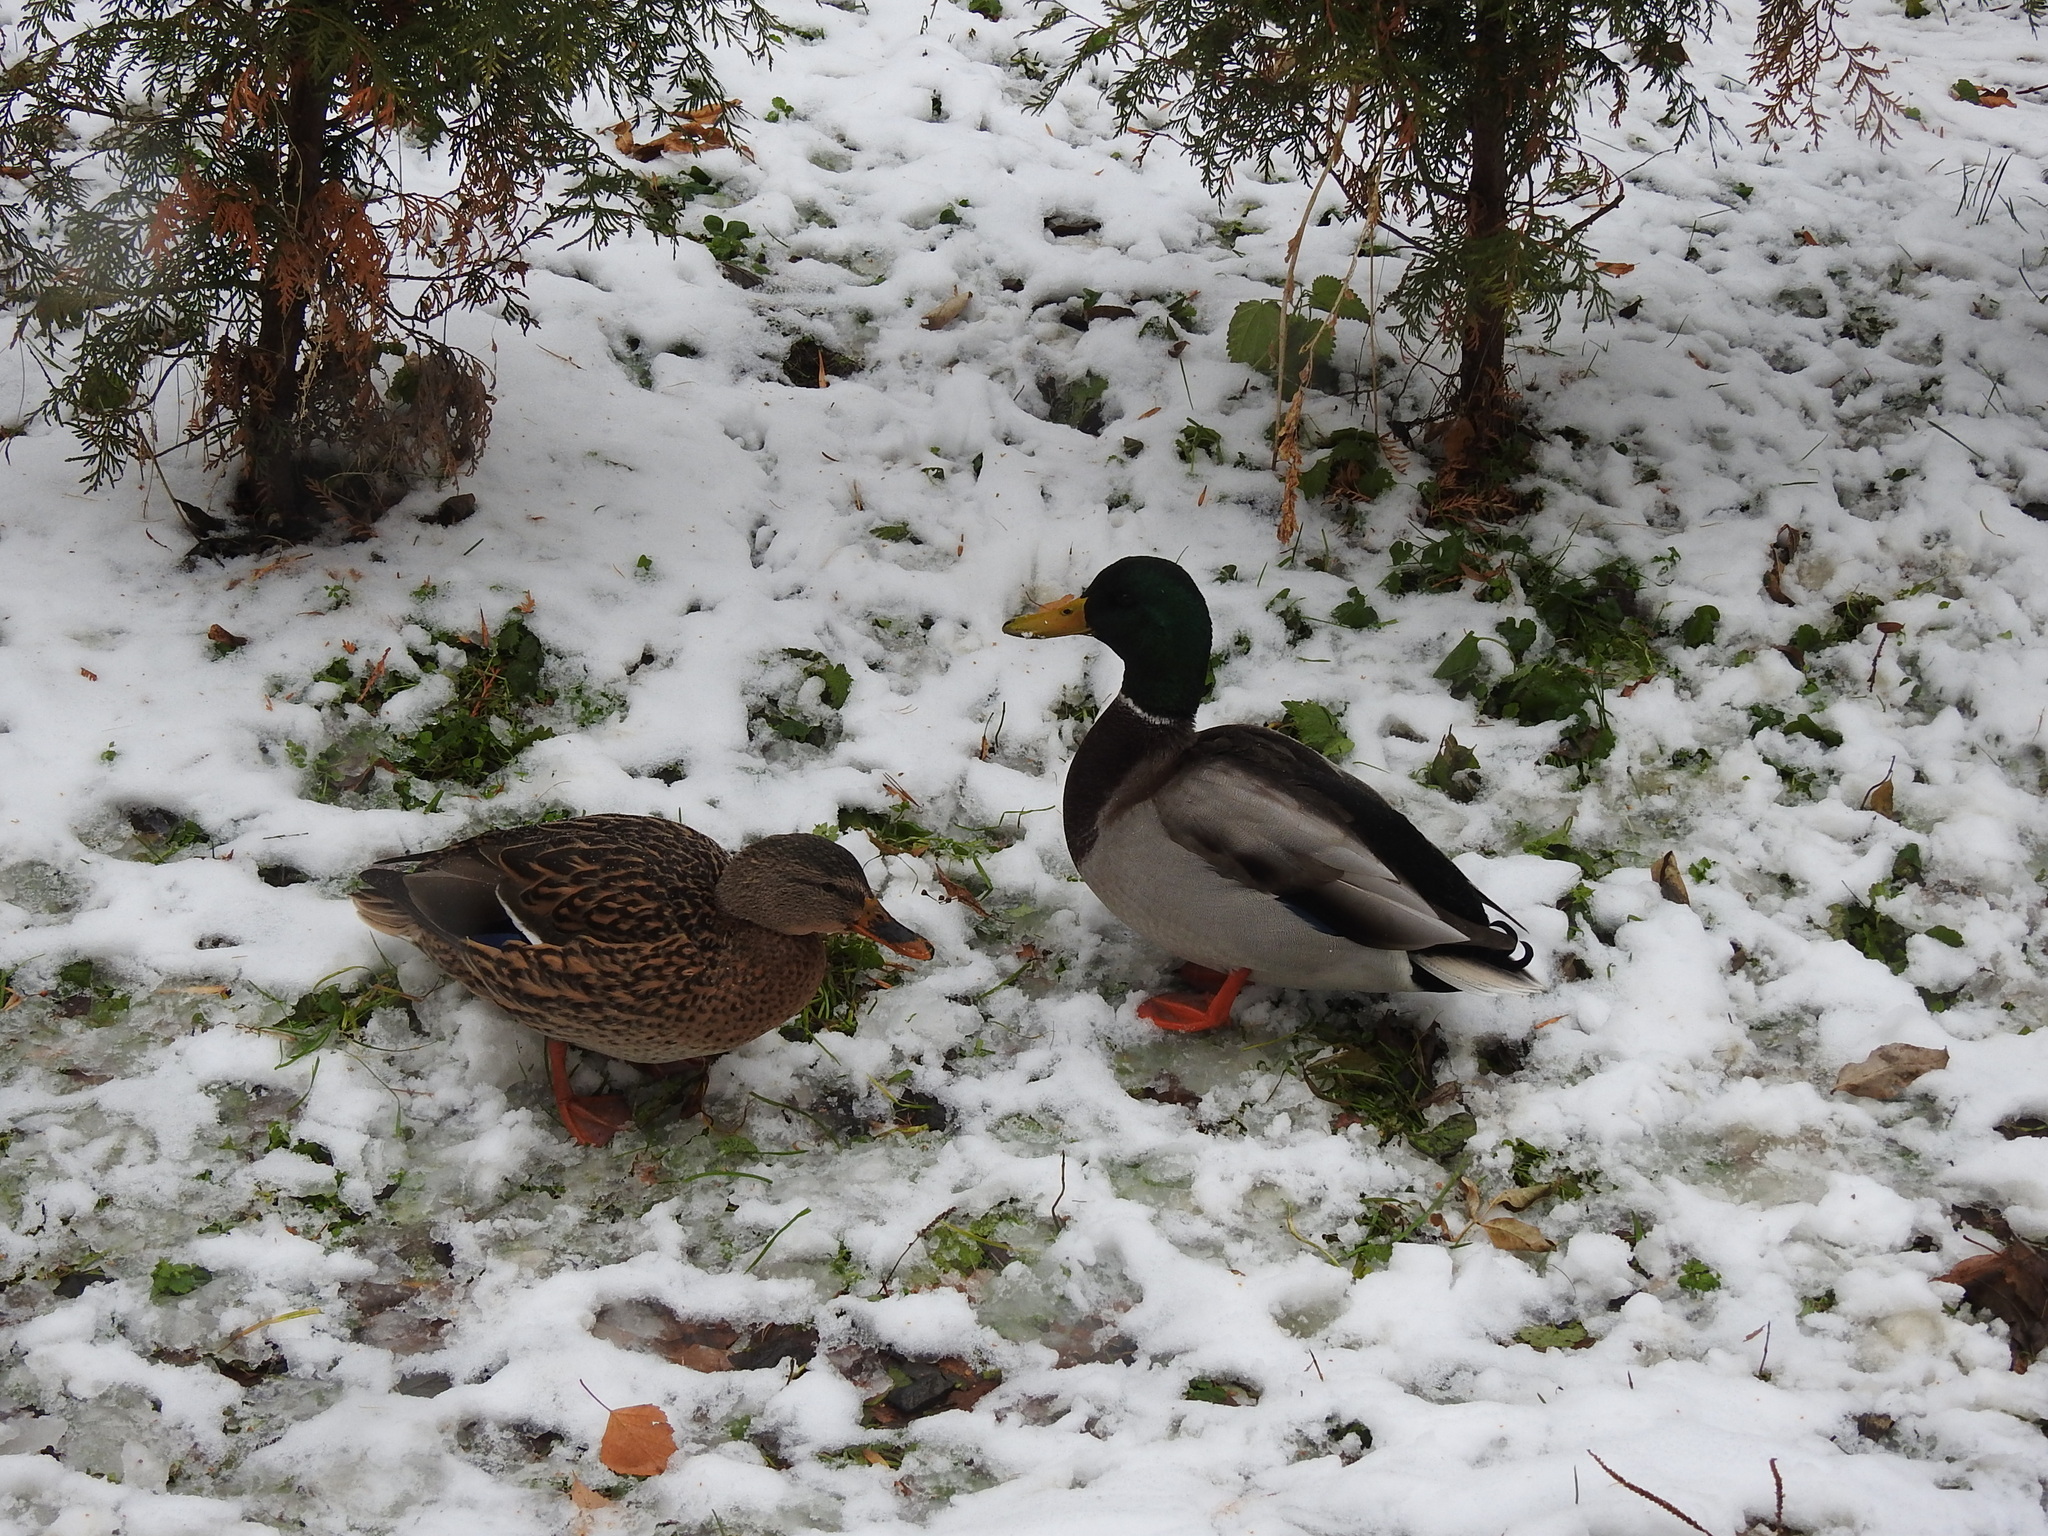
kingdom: Animalia
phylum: Chordata
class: Aves
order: Anseriformes
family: Anatidae
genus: Anas
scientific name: Anas platyrhynchos
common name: Mallard
